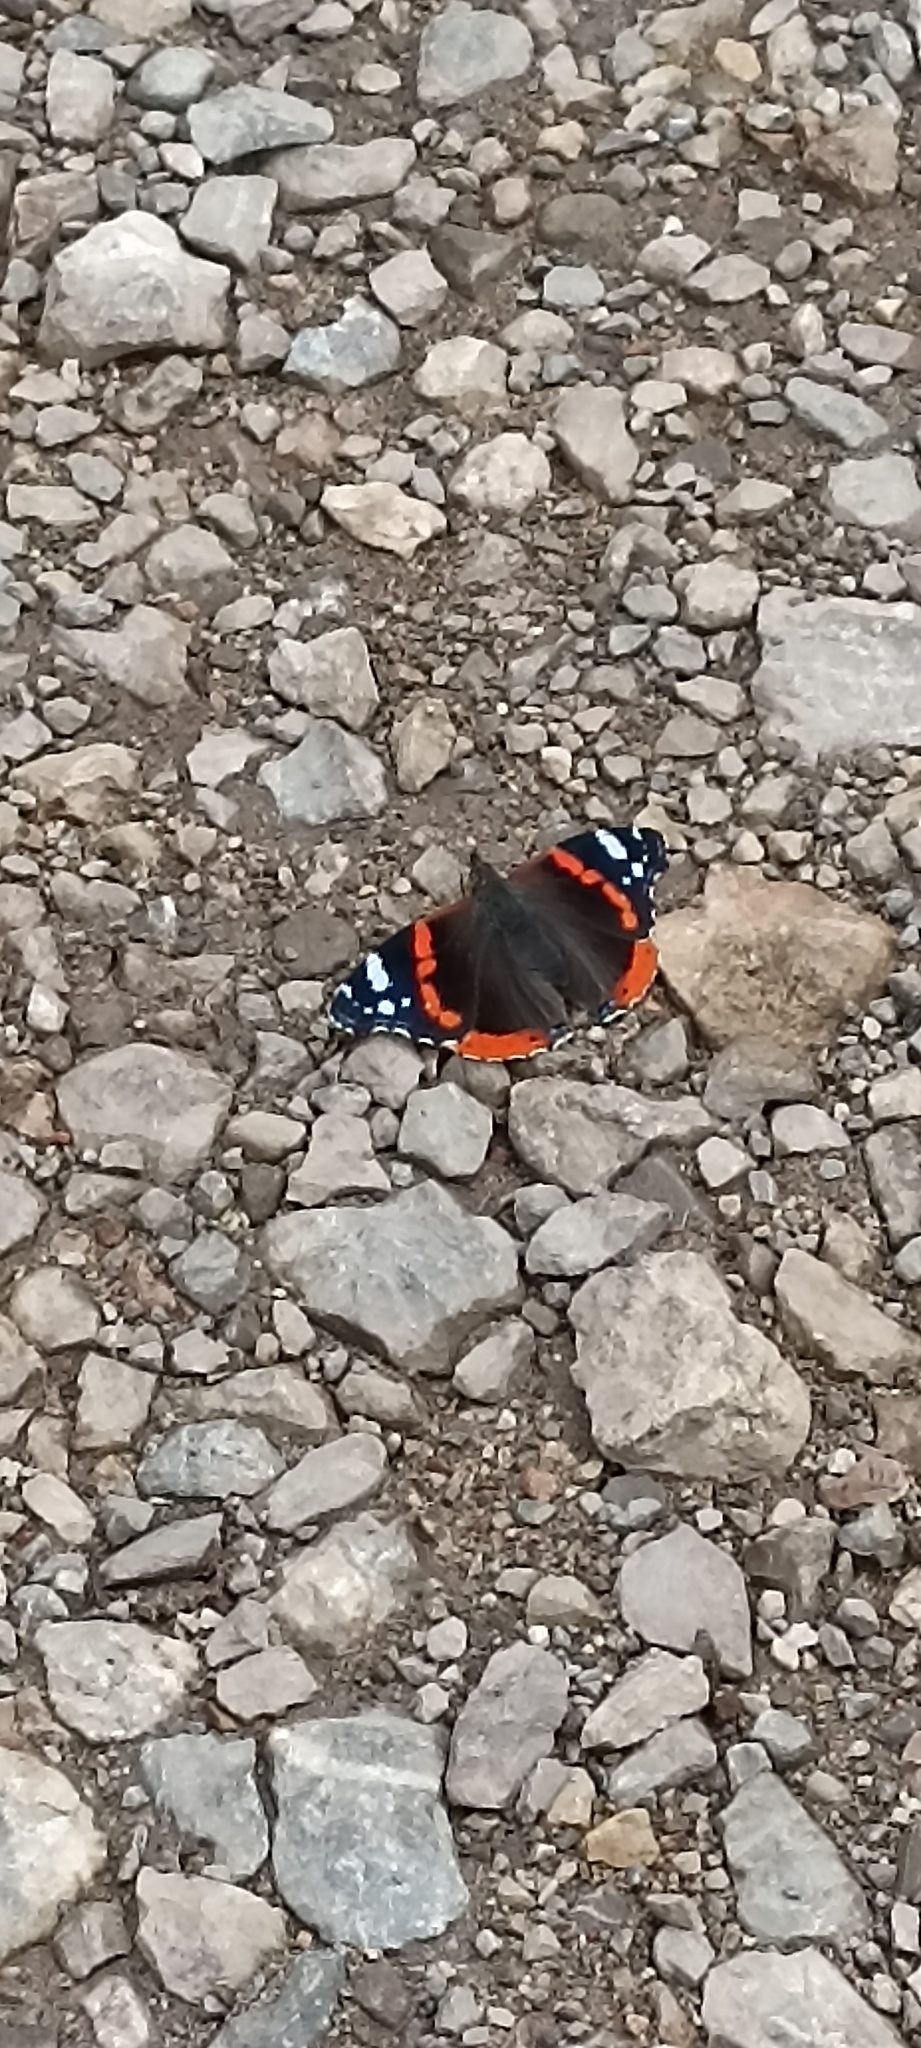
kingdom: Animalia
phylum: Arthropoda
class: Insecta
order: Lepidoptera
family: Nymphalidae
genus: Vanessa
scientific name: Vanessa atalanta
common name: Red admiral
